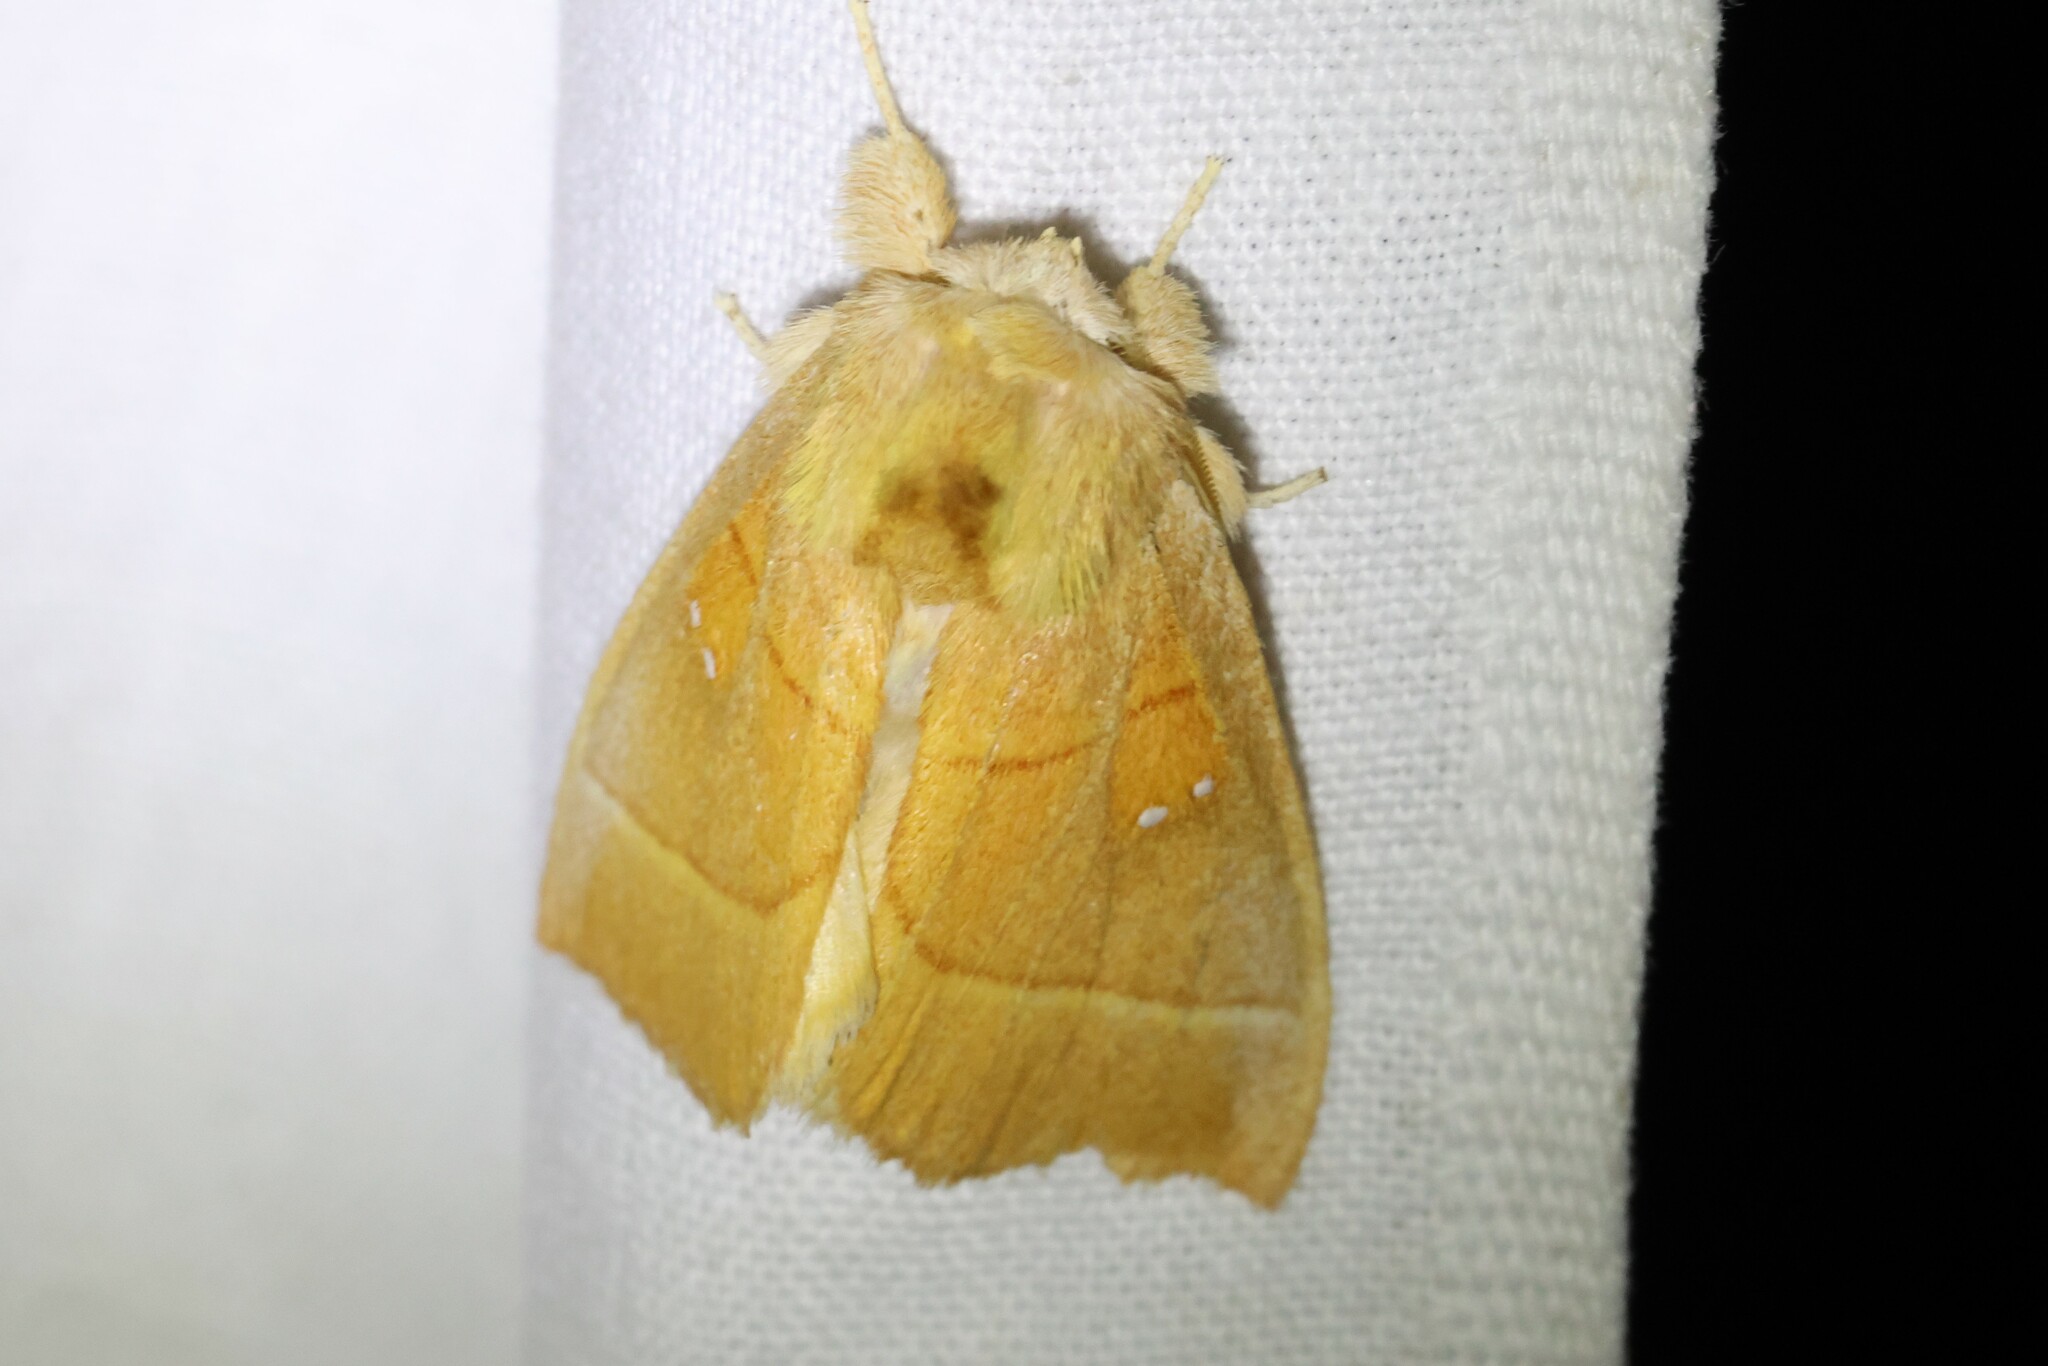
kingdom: Animalia
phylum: Arthropoda
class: Insecta
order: Lepidoptera
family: Notodontidae
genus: Nadata
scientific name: Nadata gibbosa
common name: White-dotted prominent
